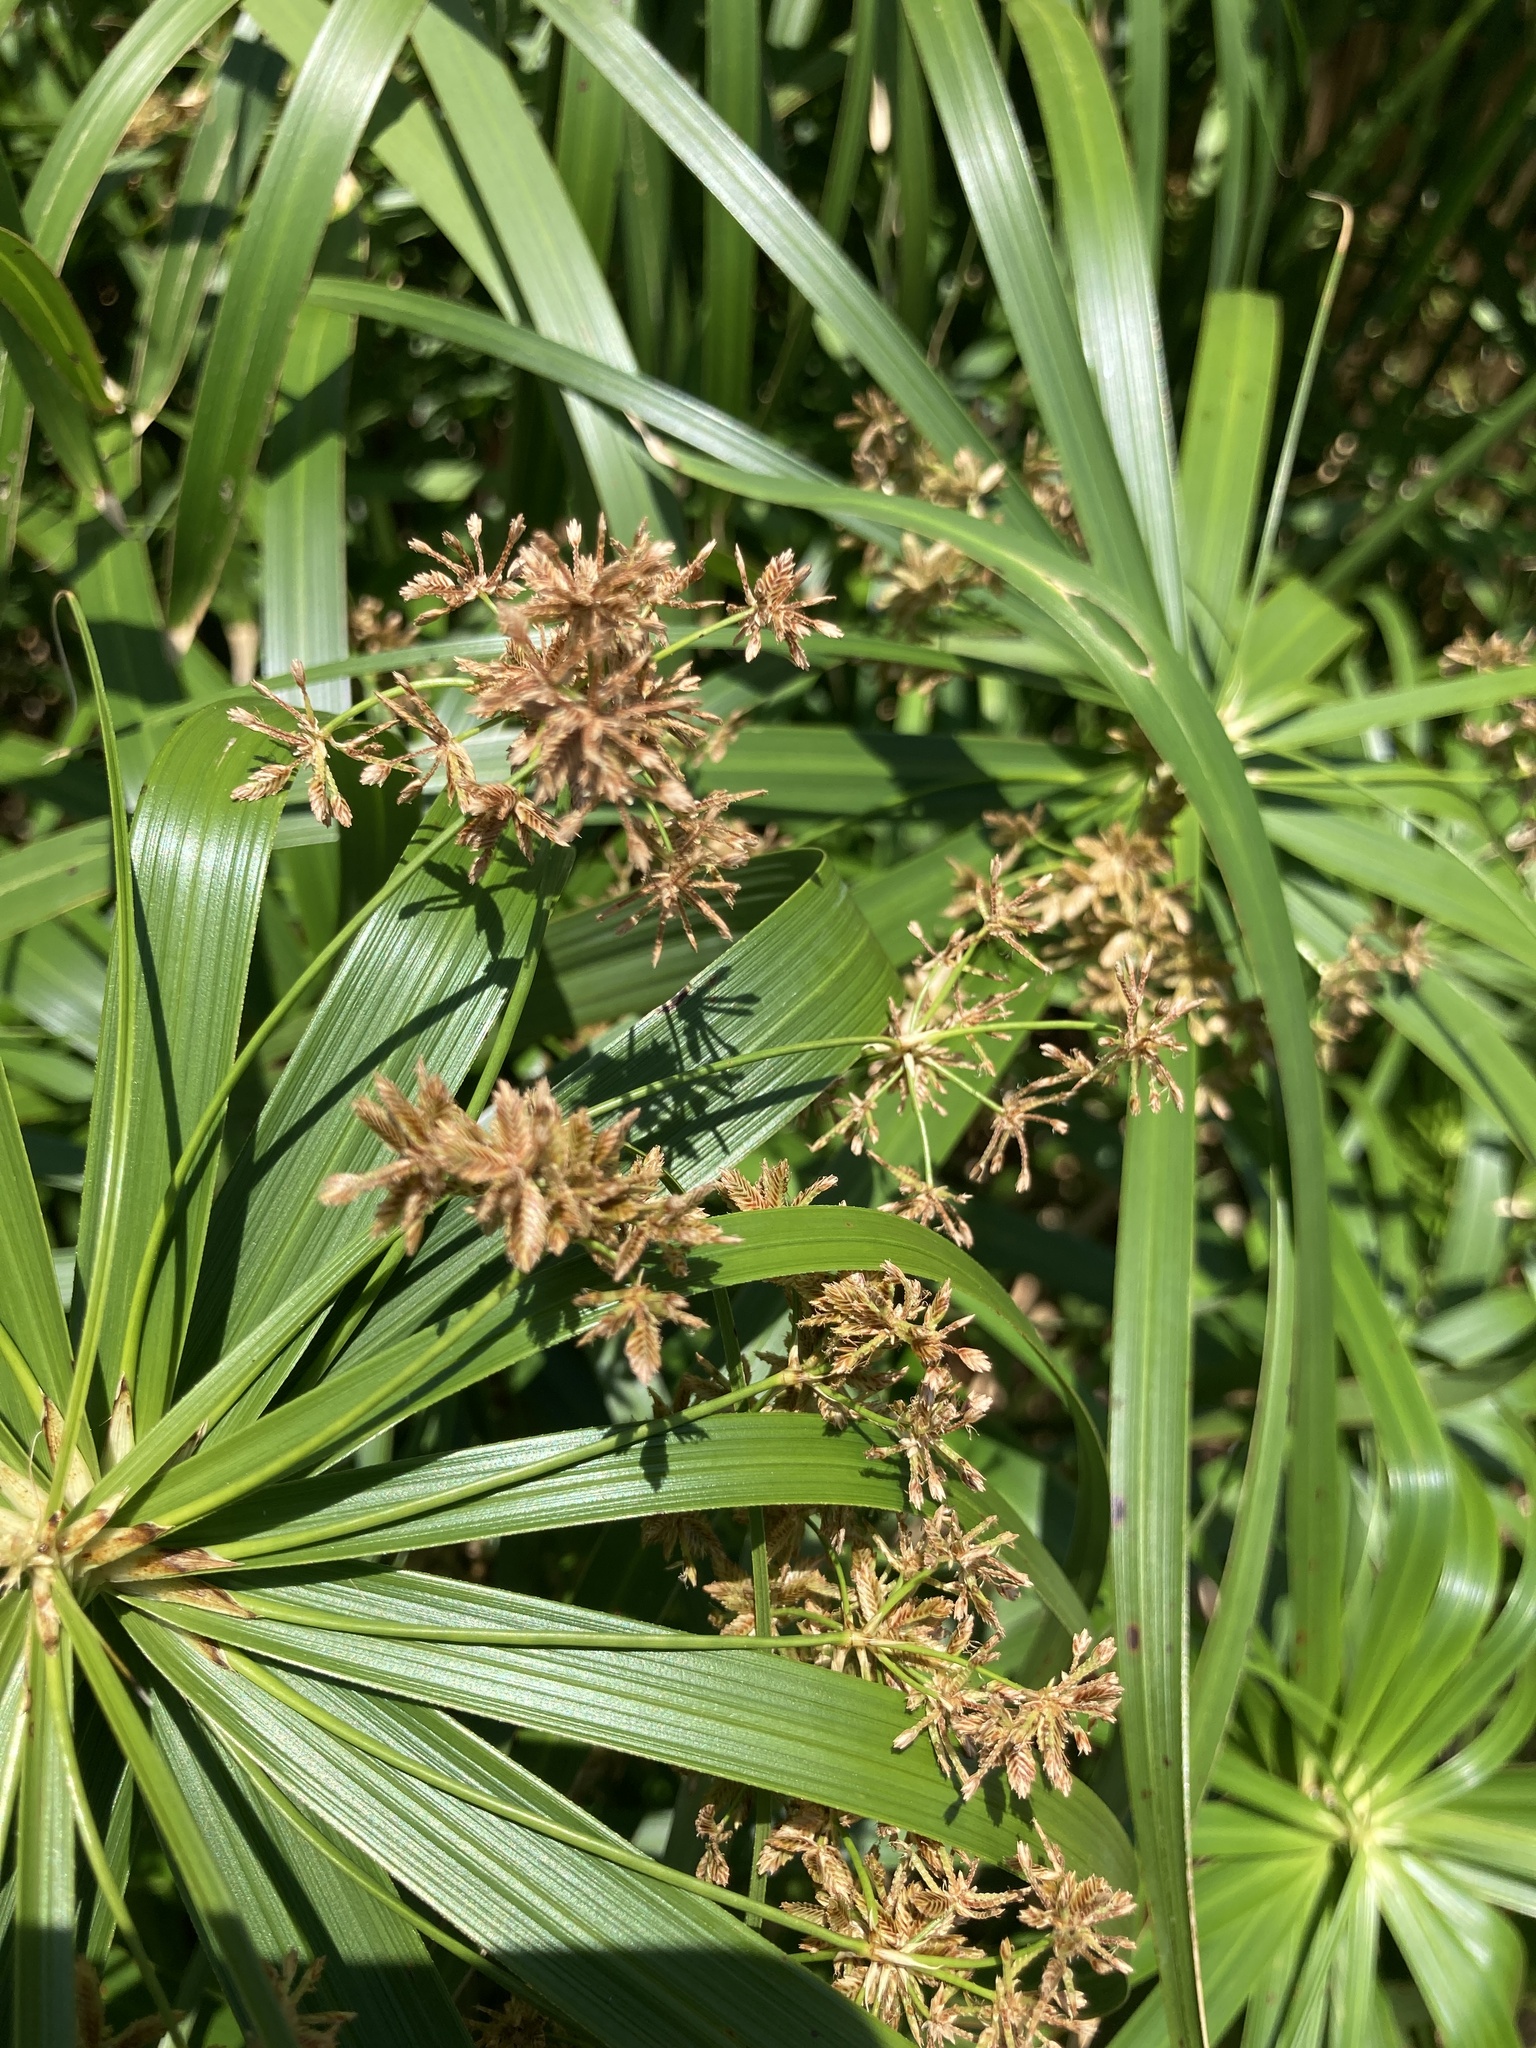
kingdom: Plantae
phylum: Tracheophyta
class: Liliopsida
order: Poales
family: Cyperaceae
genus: Cyperus
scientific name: Cyperus alternifolius
